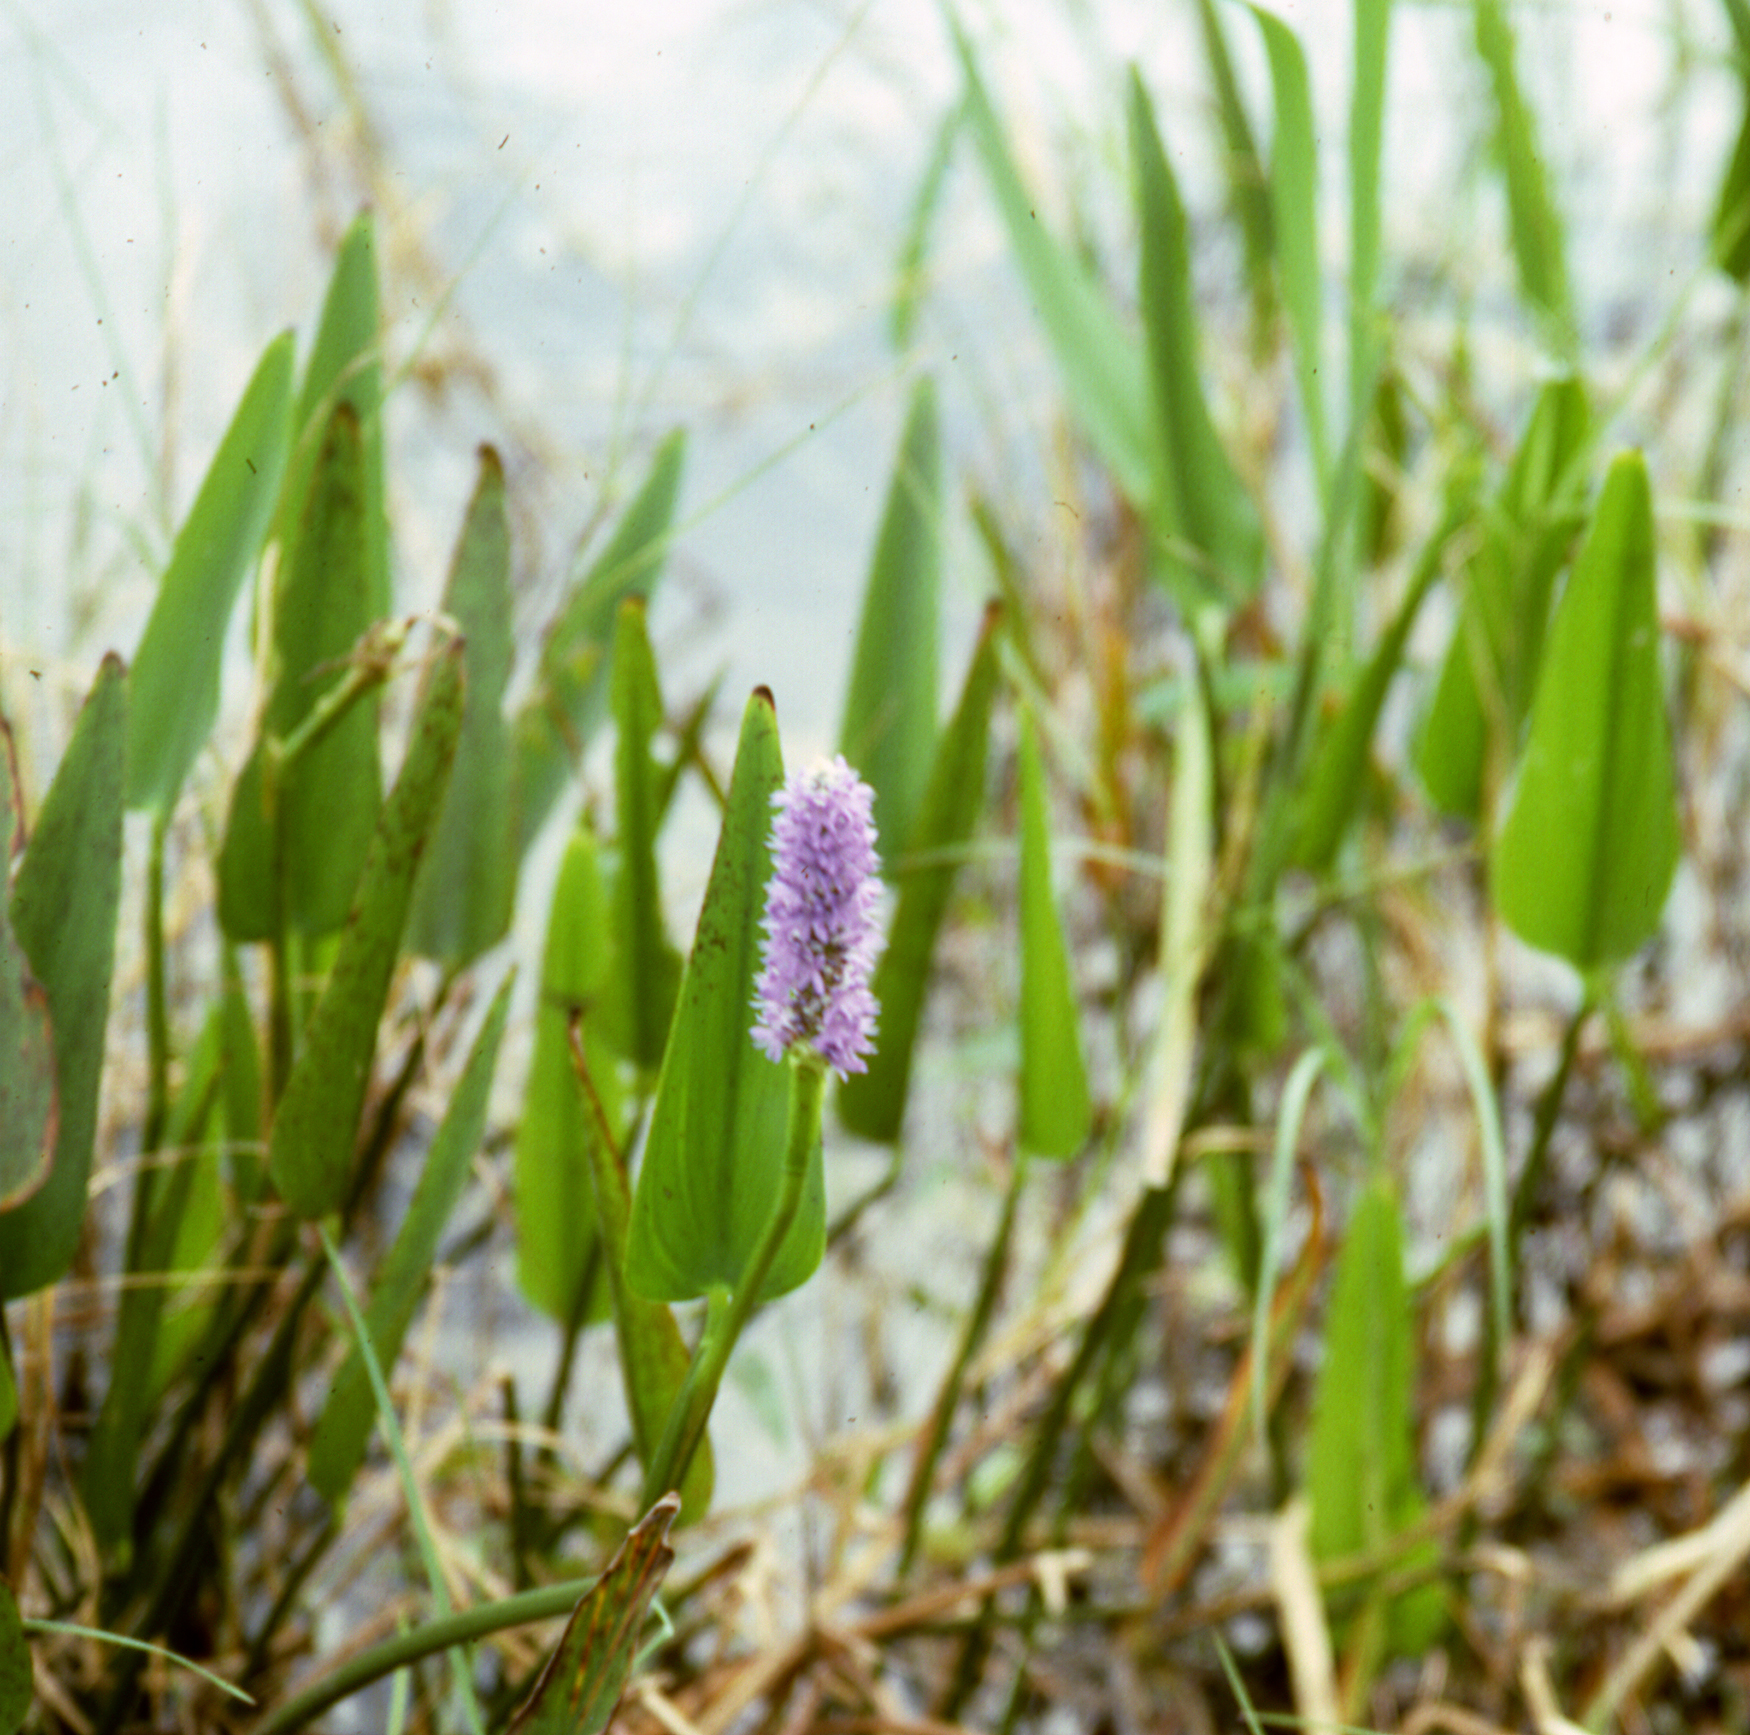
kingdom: Plantae
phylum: Tracheophyta
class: Liliopsida
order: Commelinales
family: Pontederiaceae
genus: Pontederia
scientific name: Pontederia cordata
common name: Pickerelweed
